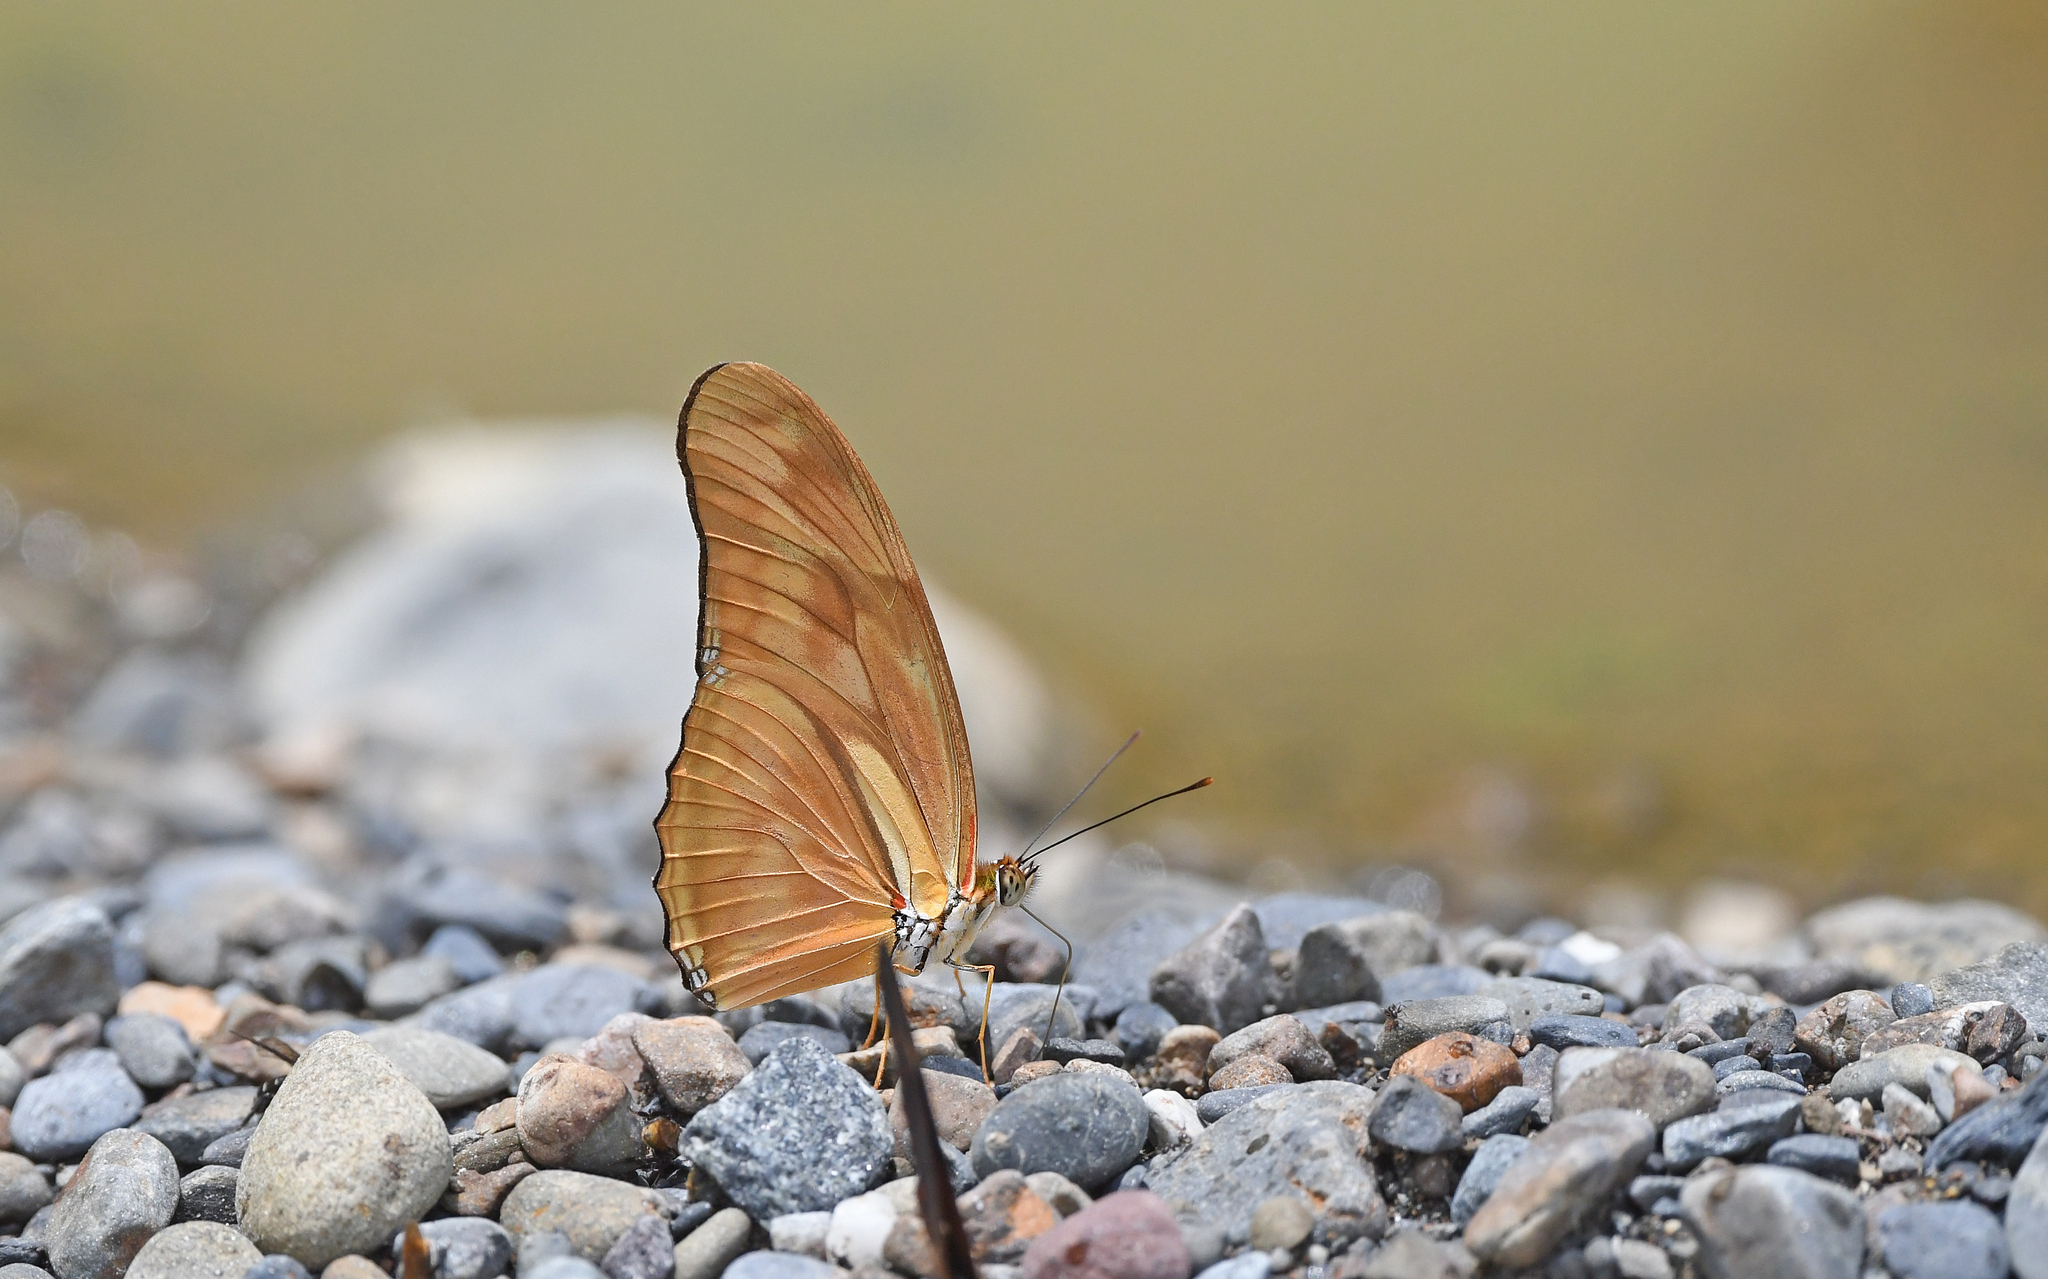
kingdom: Animalia
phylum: Arthropoda
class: Insecta
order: Lepidoptera
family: Nymphalidae
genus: Dryas
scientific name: Dryas iulia
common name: Flambeau
